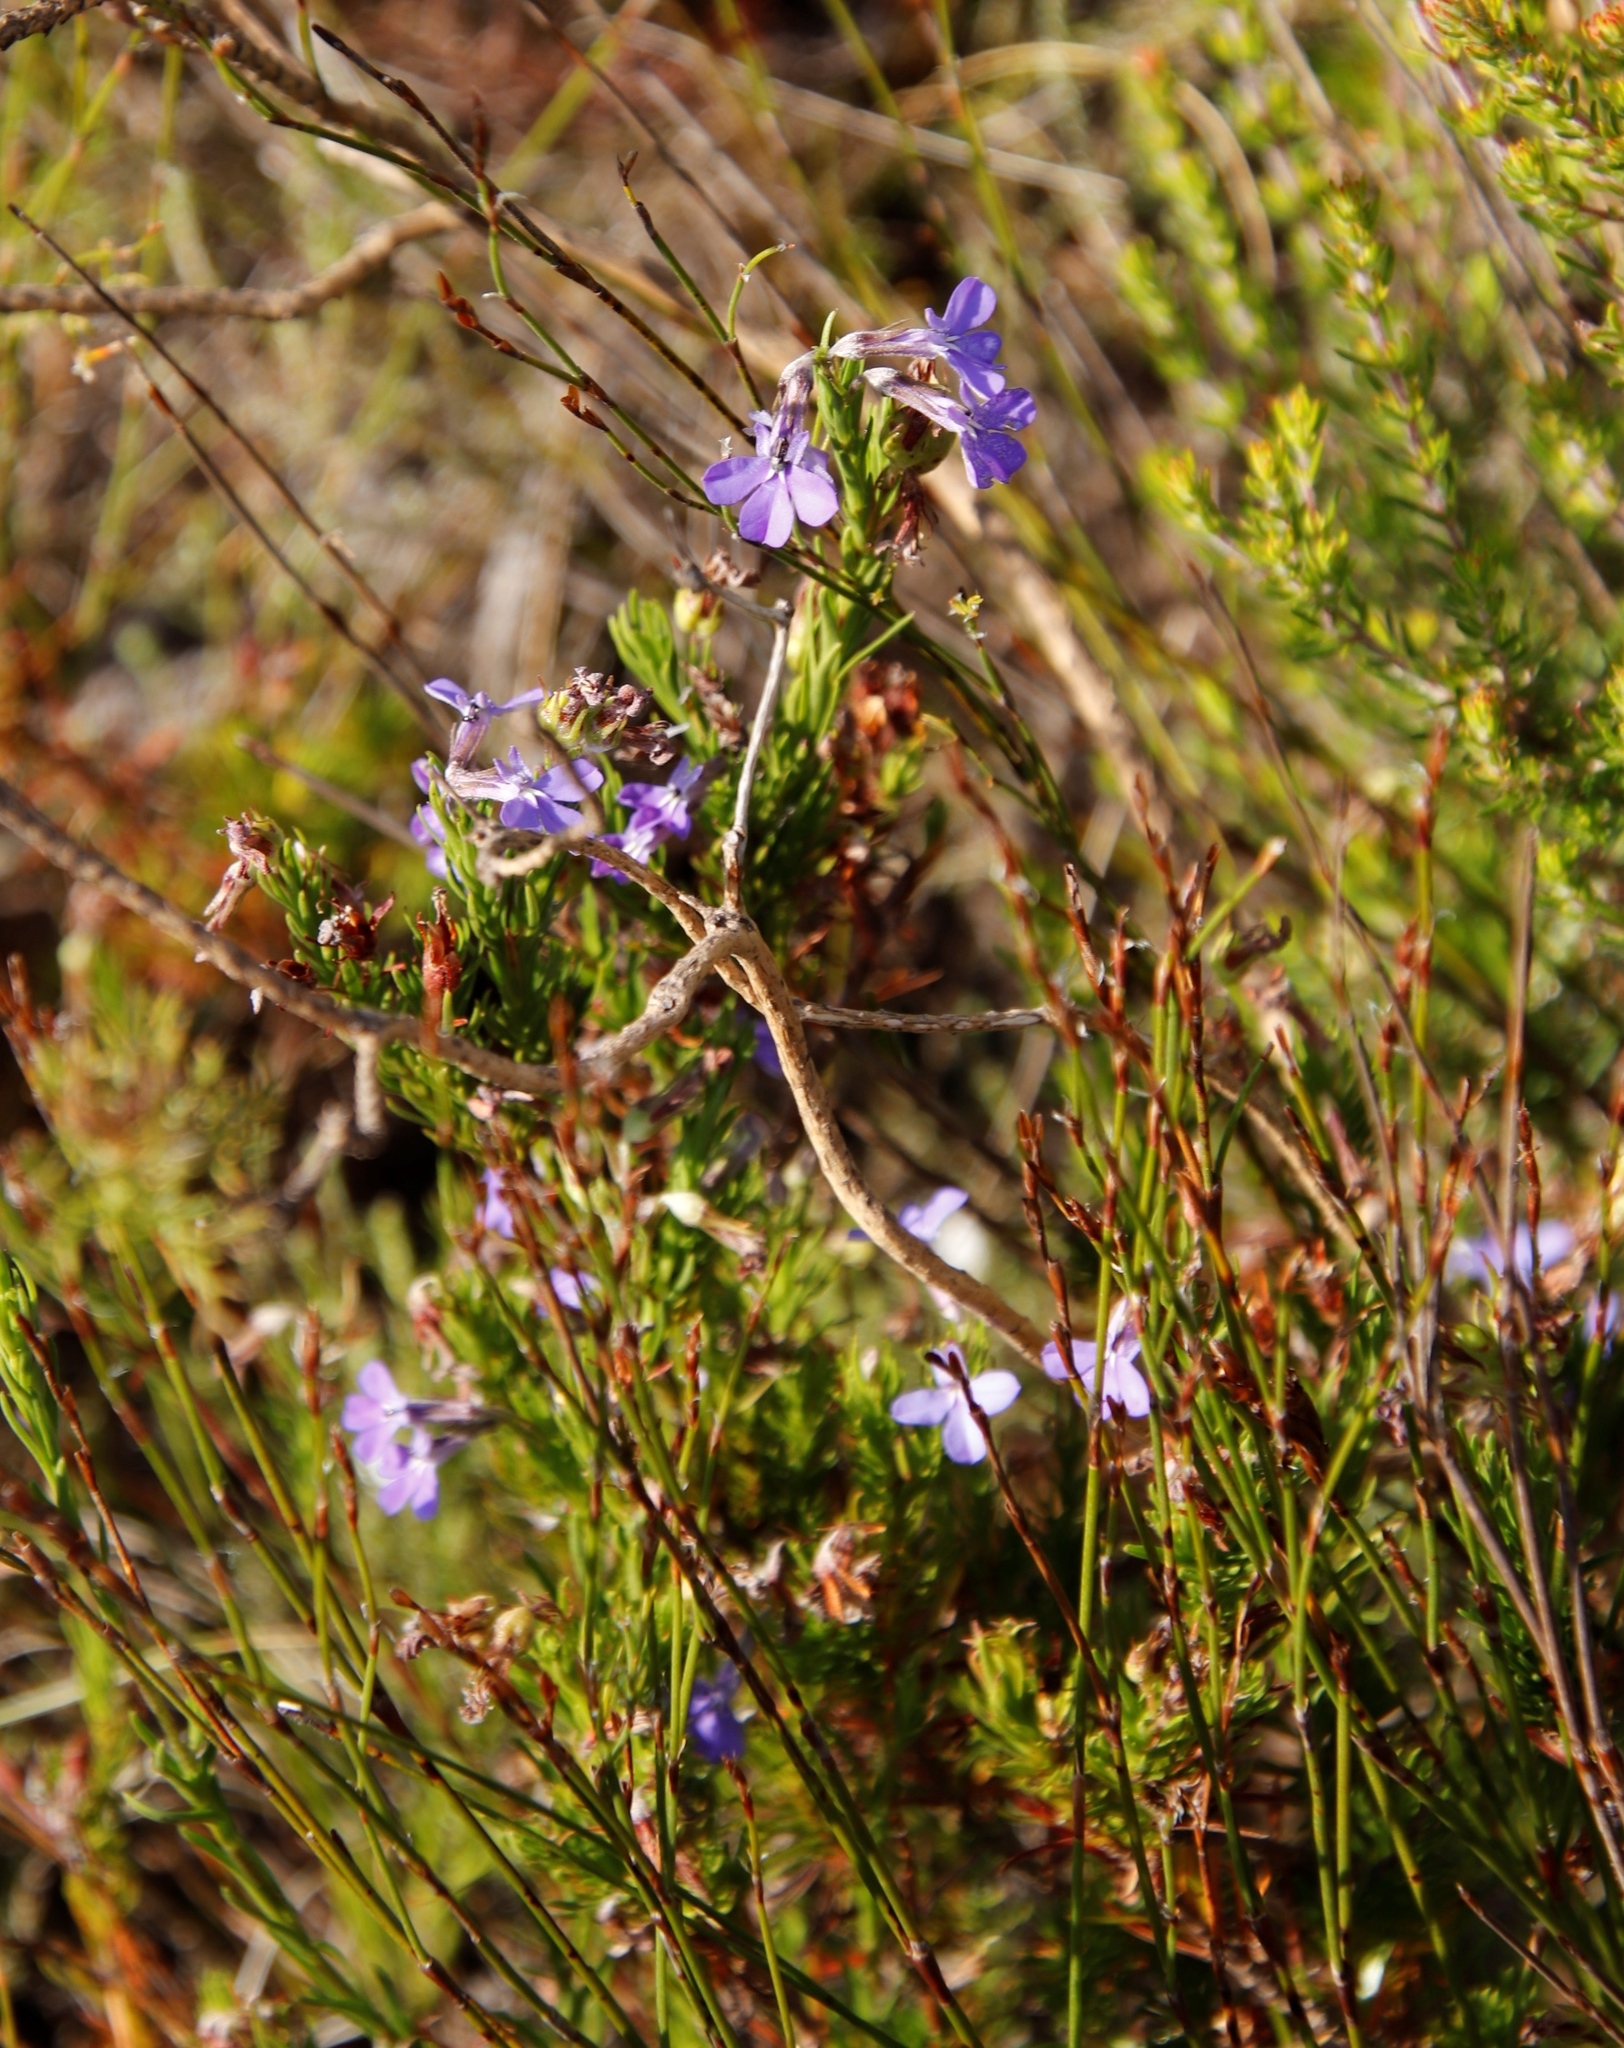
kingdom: Plantae
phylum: Tracheophyta
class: Magnoliopsida
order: Asterales
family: Campanulaceae
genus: Lobelia
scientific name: Lobelia pinifolia
